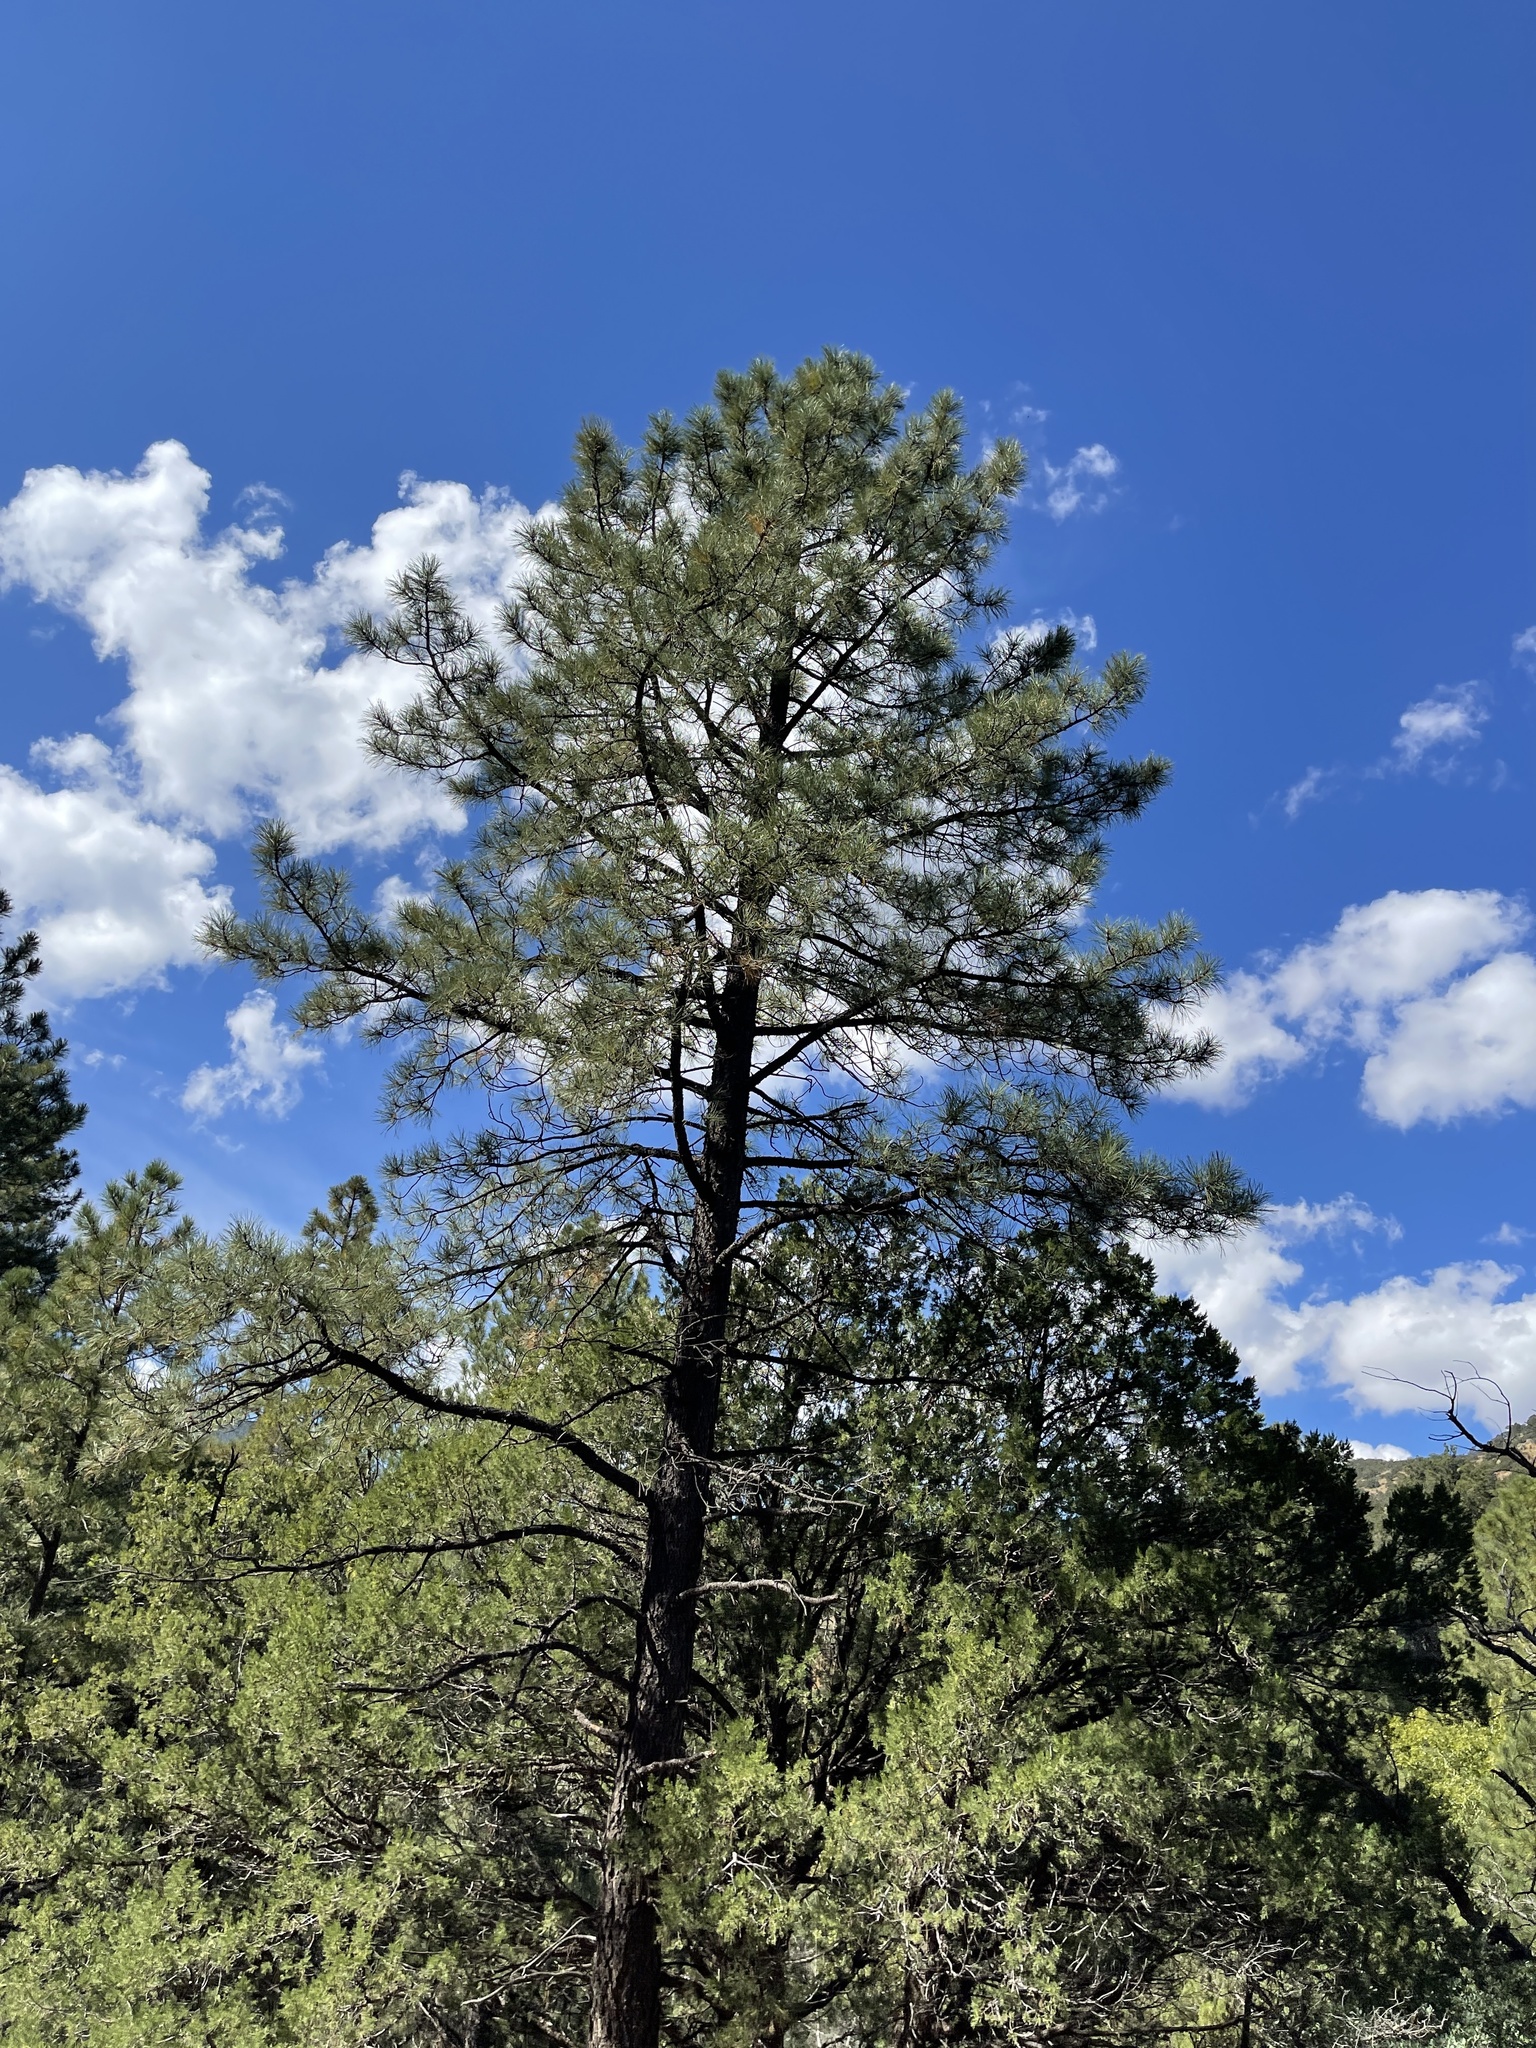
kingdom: Plantae
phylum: Tracheophyta
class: Pinopsida
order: Pinales
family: Pinaceae
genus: Pinus
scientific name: Pinus ponderosa
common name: Western yellow-pine
